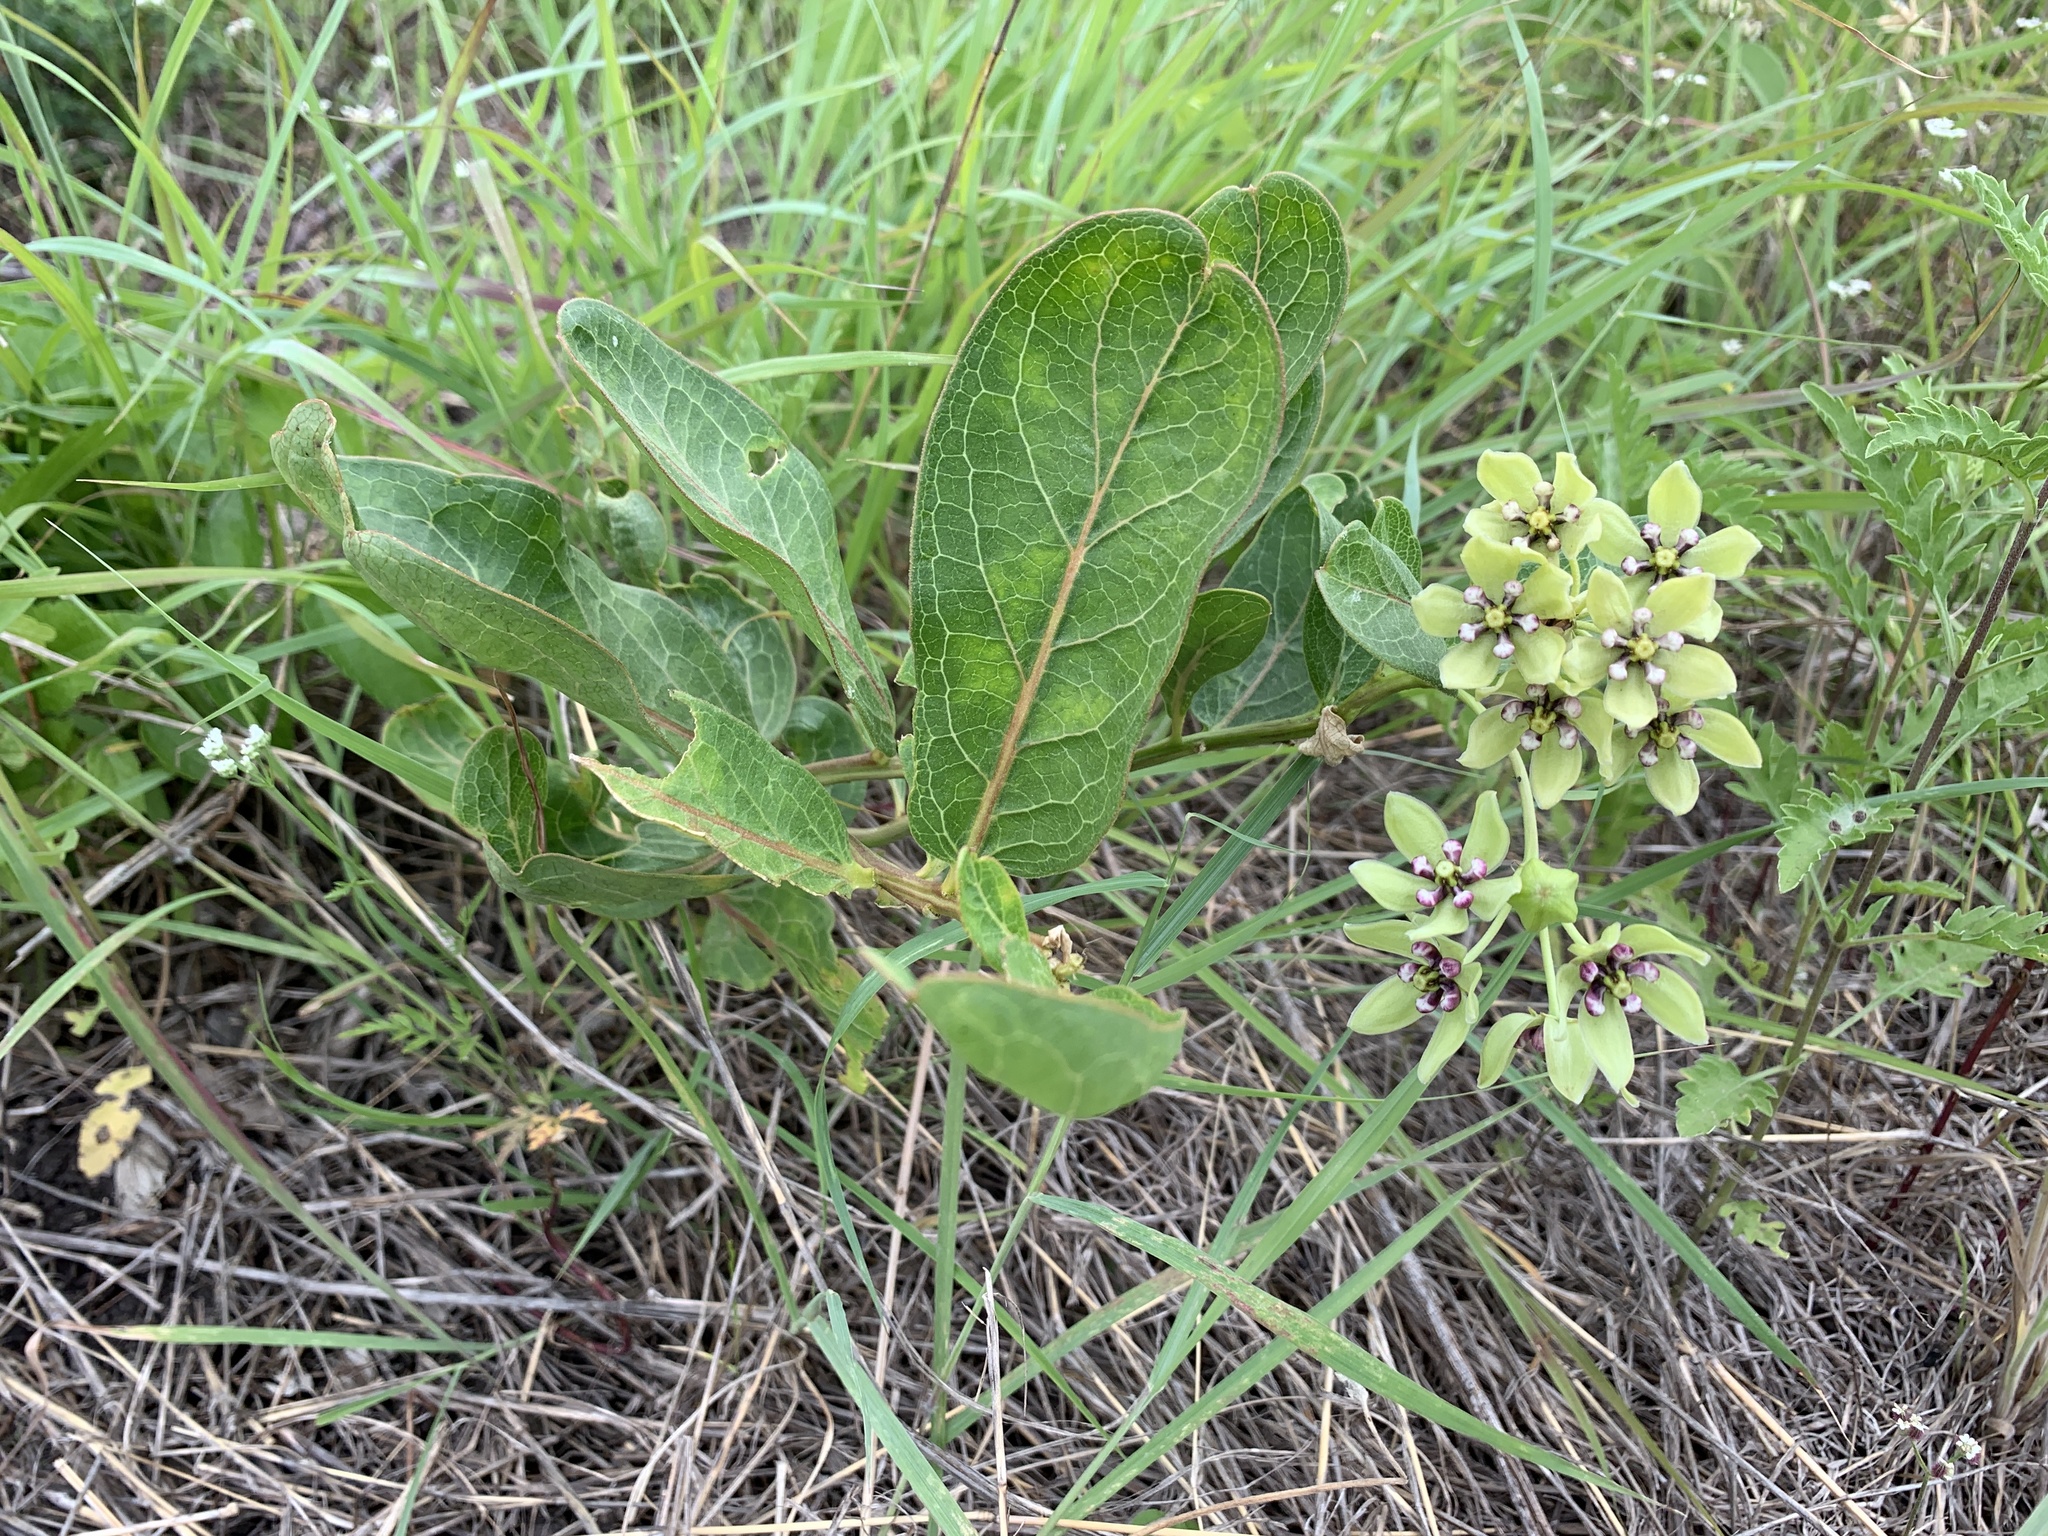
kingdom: Plantae
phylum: Tracheophyta
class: Magnoliopsida
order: Gentianales
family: Apocynaceae
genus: Asclepias
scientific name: Asclepias viridis
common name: Antelope-horns
